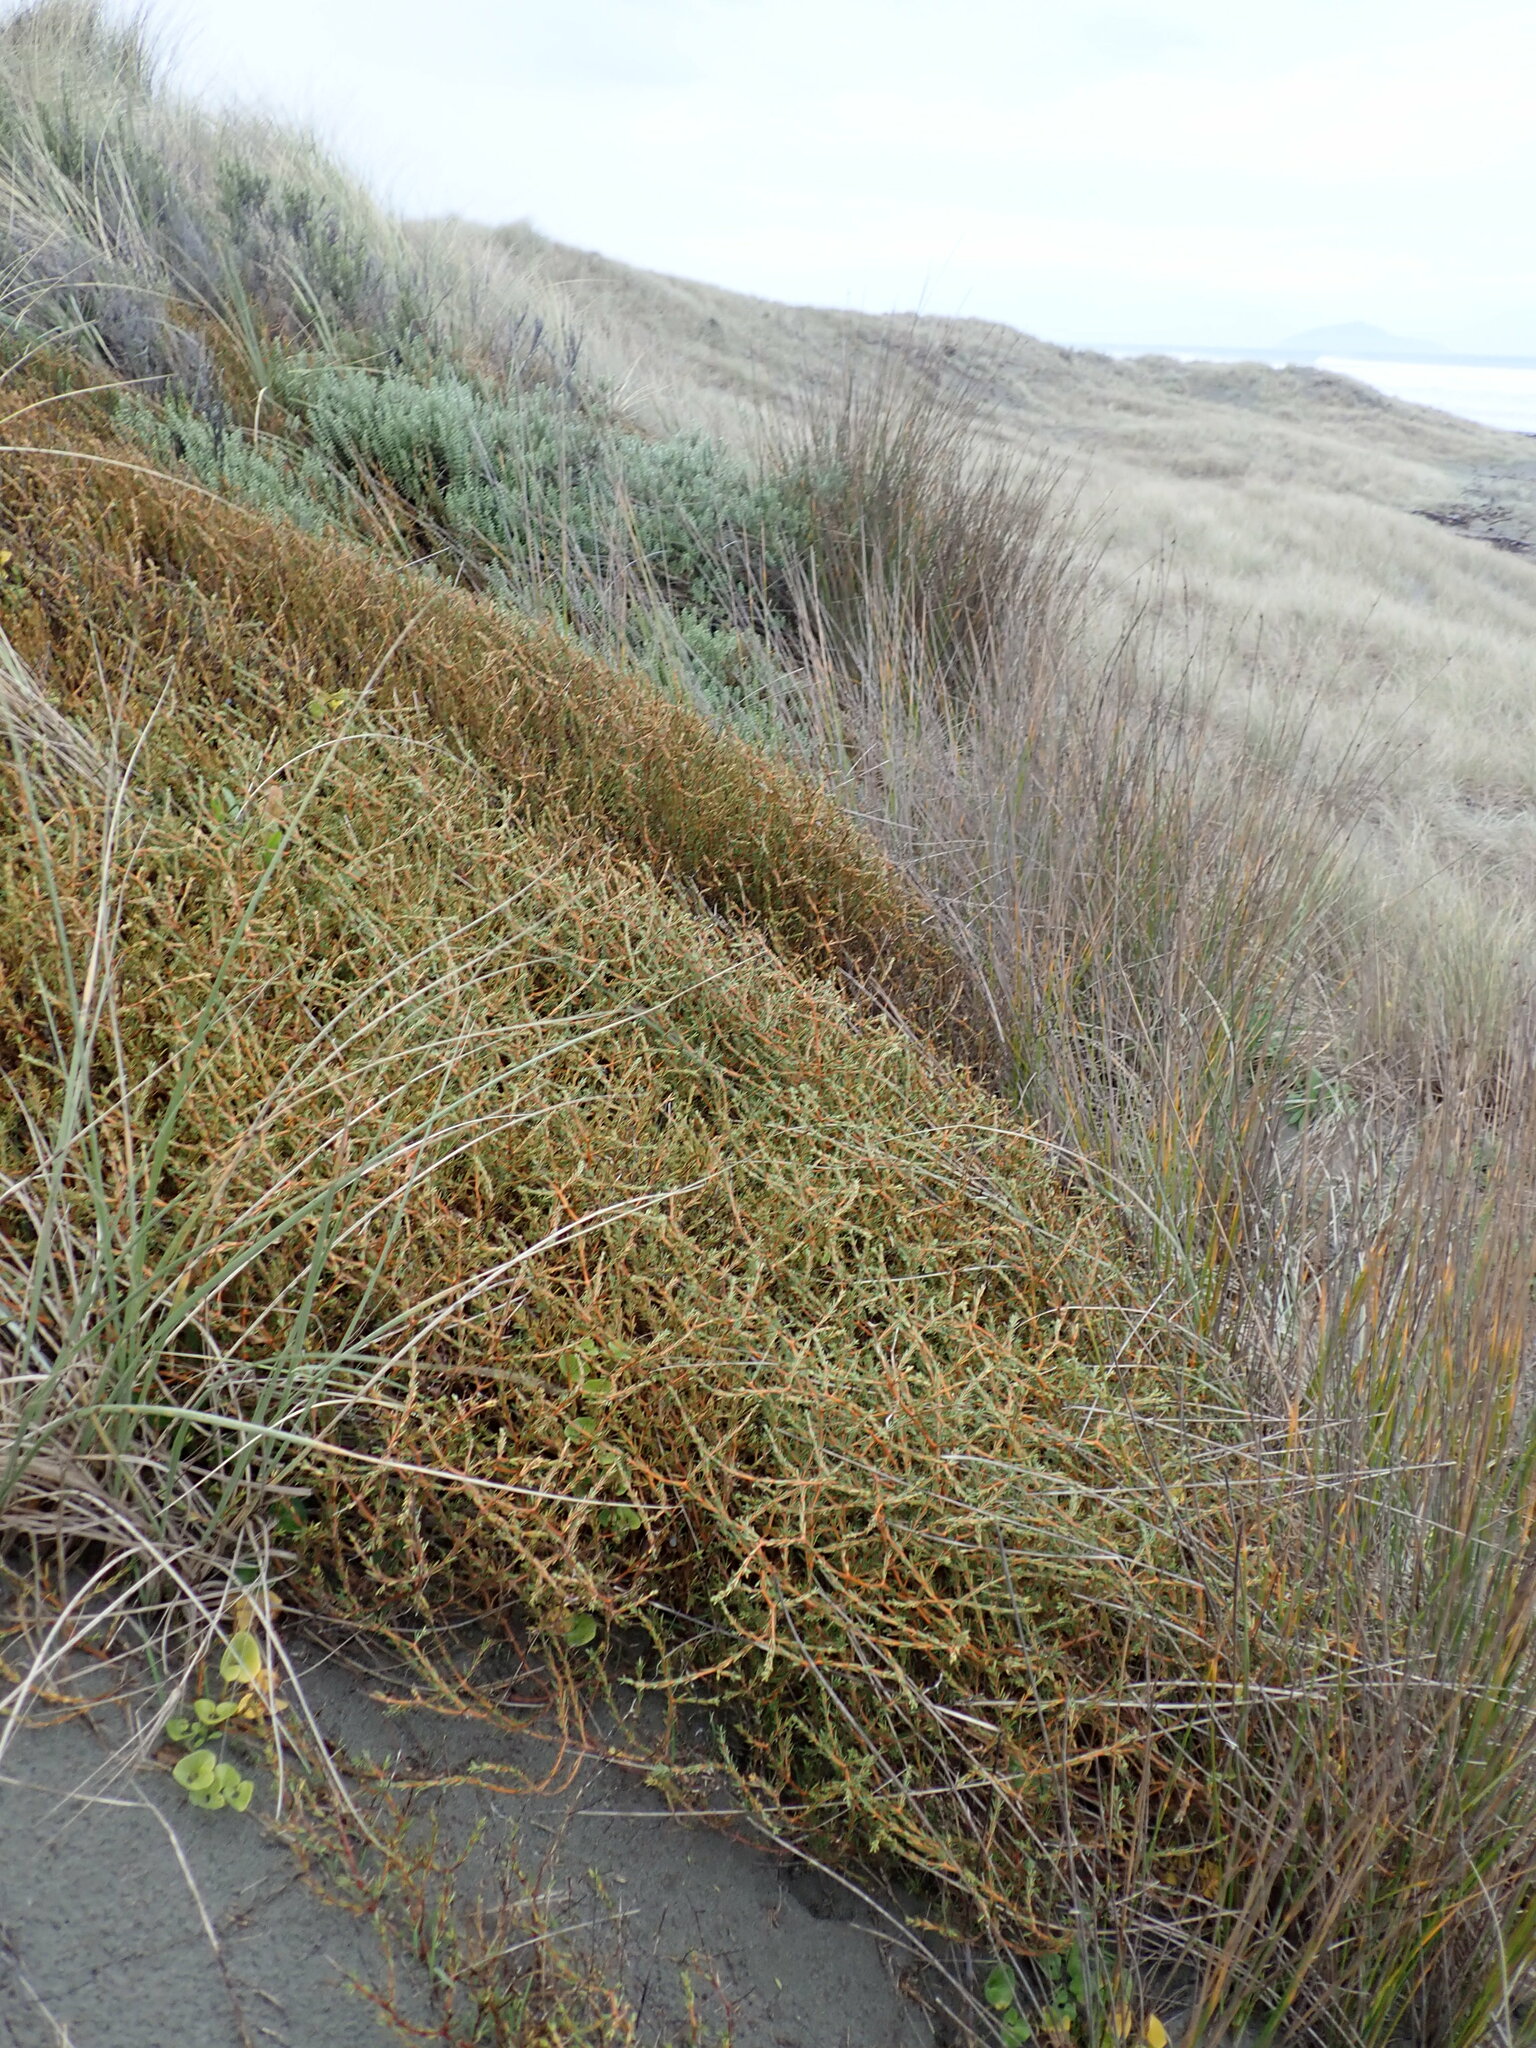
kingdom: Plantae
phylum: Tracheophyta
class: Magnoliopsida
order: Gentianales
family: Rubiaceae
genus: Coprosma
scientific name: Coprosma acerosa
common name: Sand coprosma
